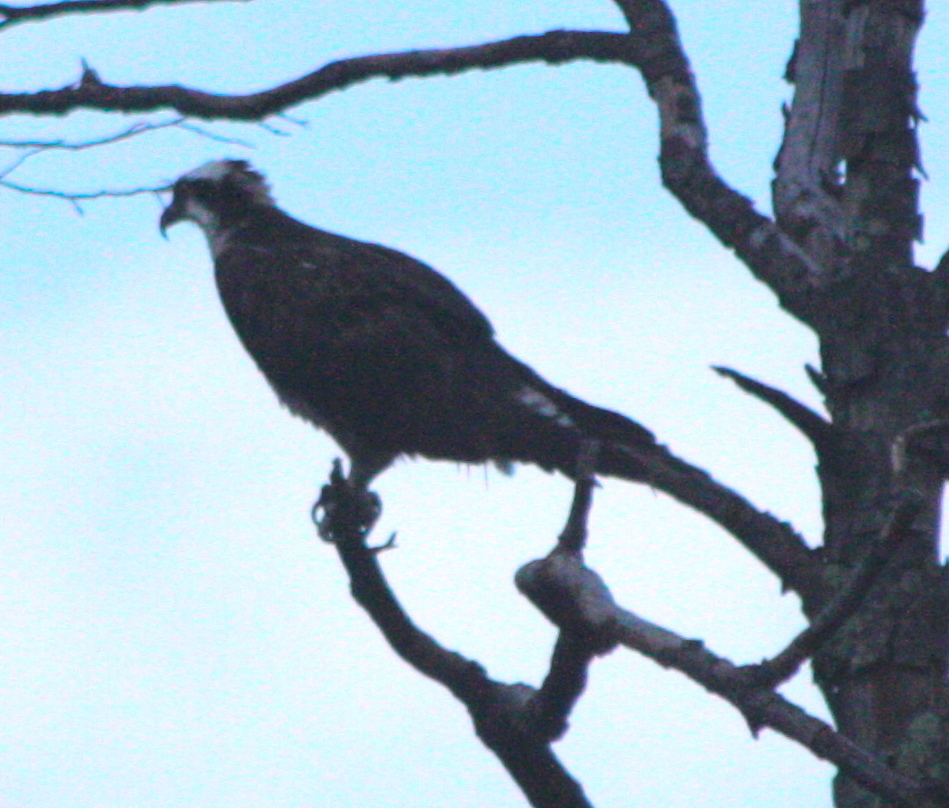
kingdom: Animalia
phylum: Chordata
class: Aves
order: Accipitriformes
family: Pandionidae
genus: Pandion
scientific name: Pandion haliaetus
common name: Osprey
